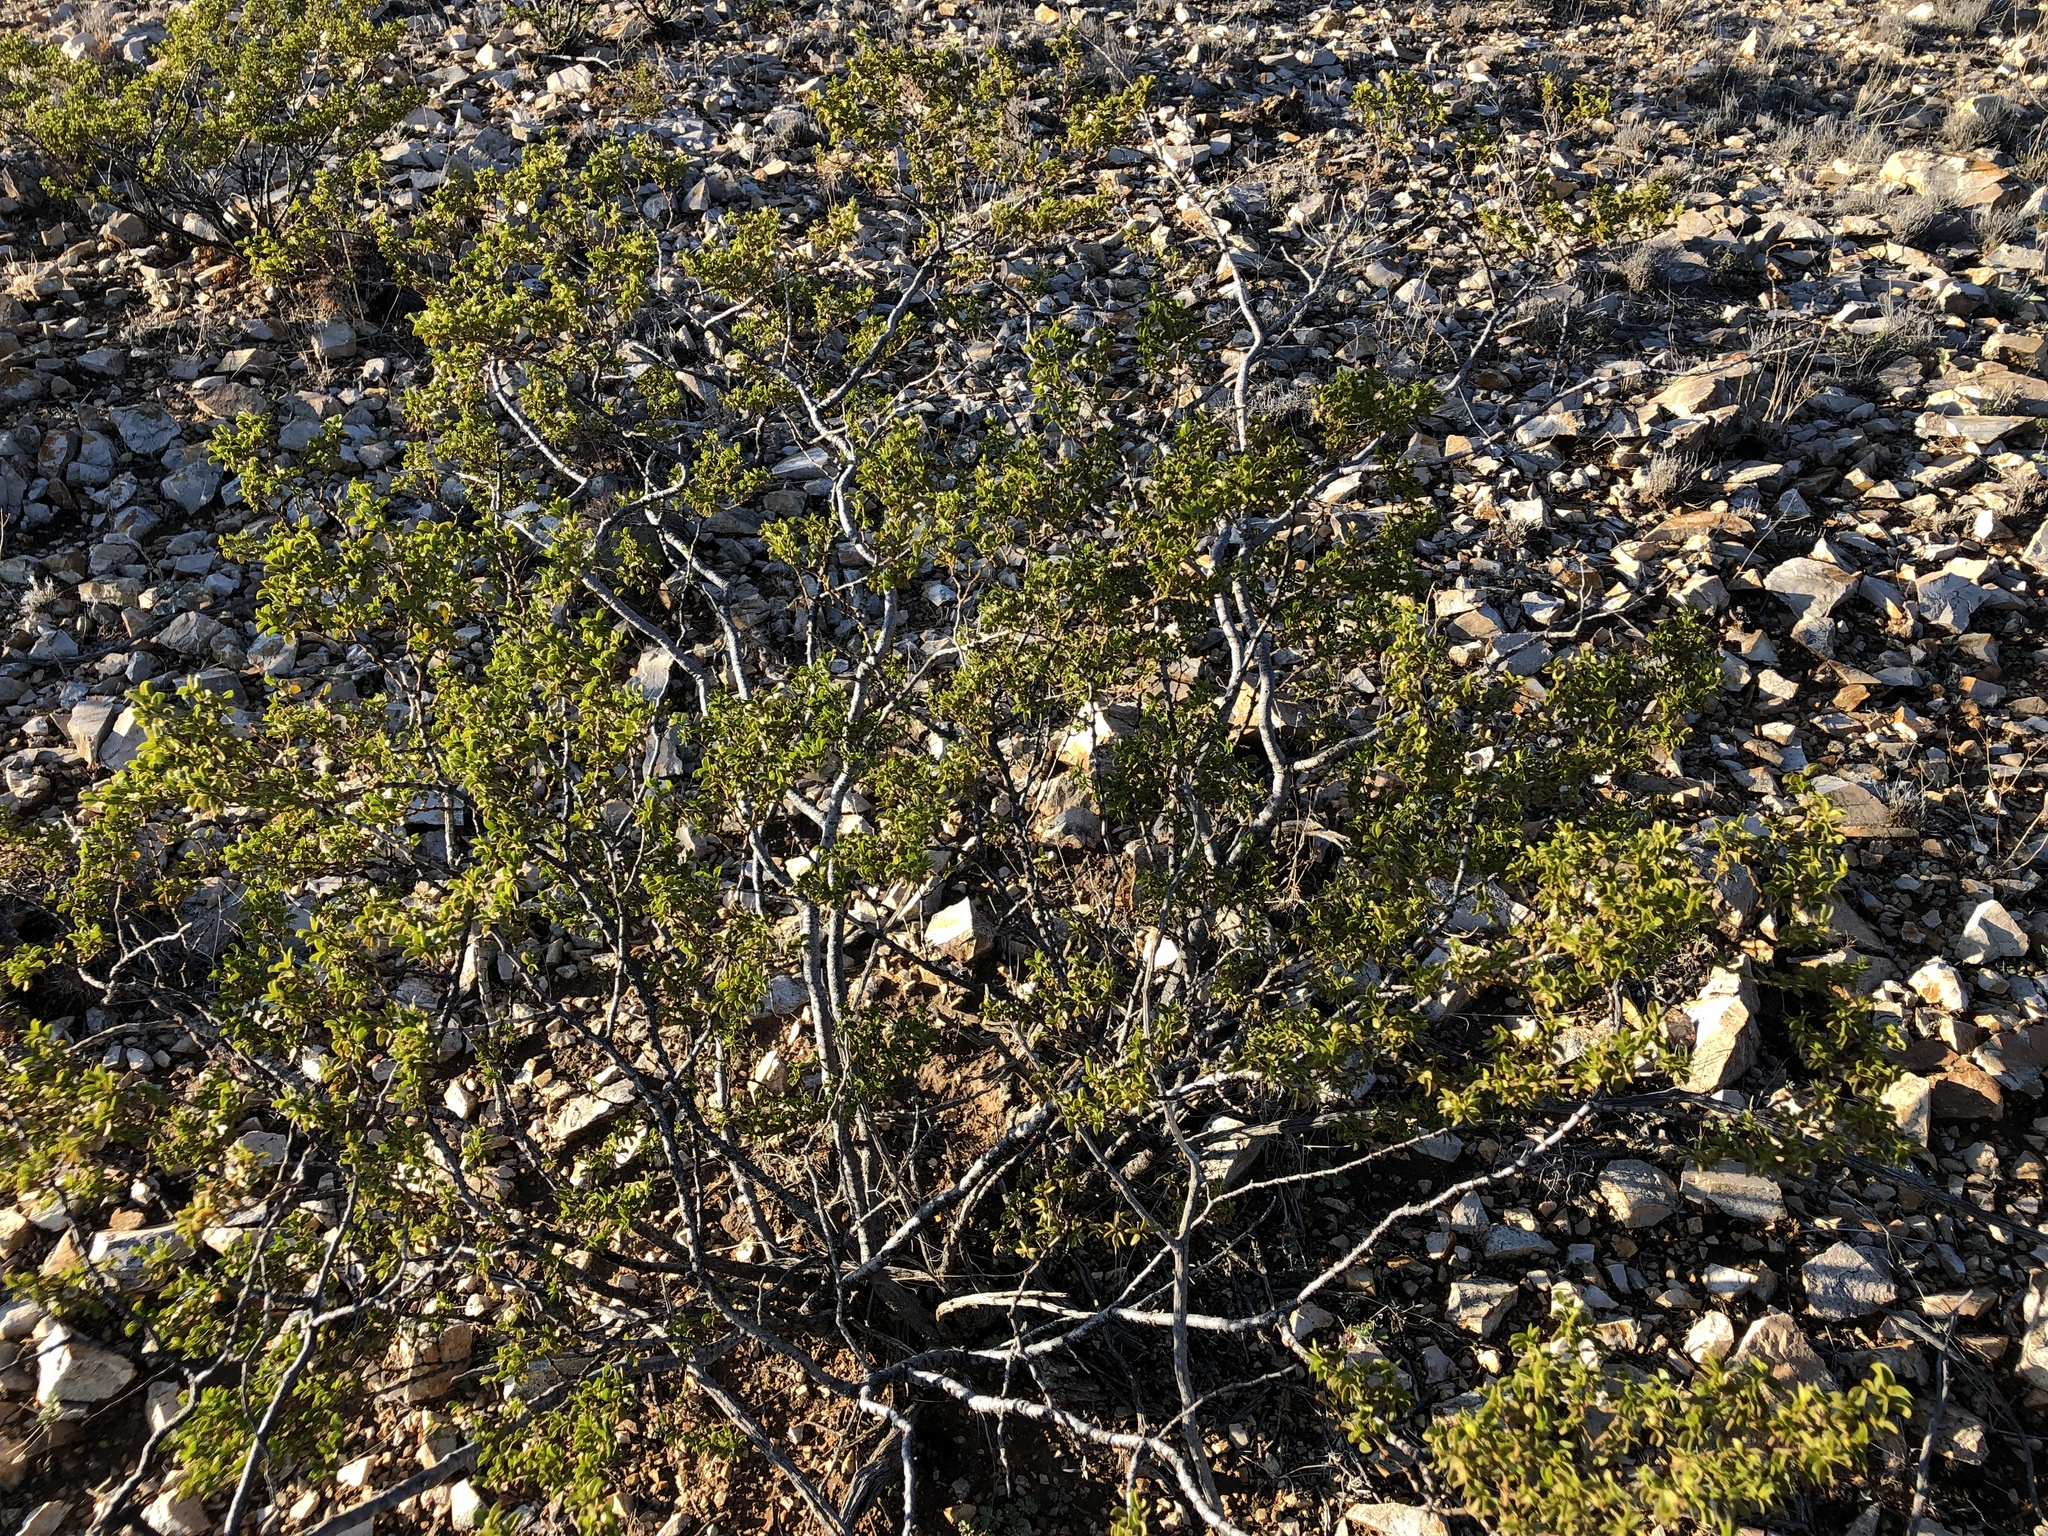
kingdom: Plantae
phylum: Tracheophyta
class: Magnoliopsida
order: Zygophyllales
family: Zygophyllaceae
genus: Larrea
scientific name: Larrea tridentata
